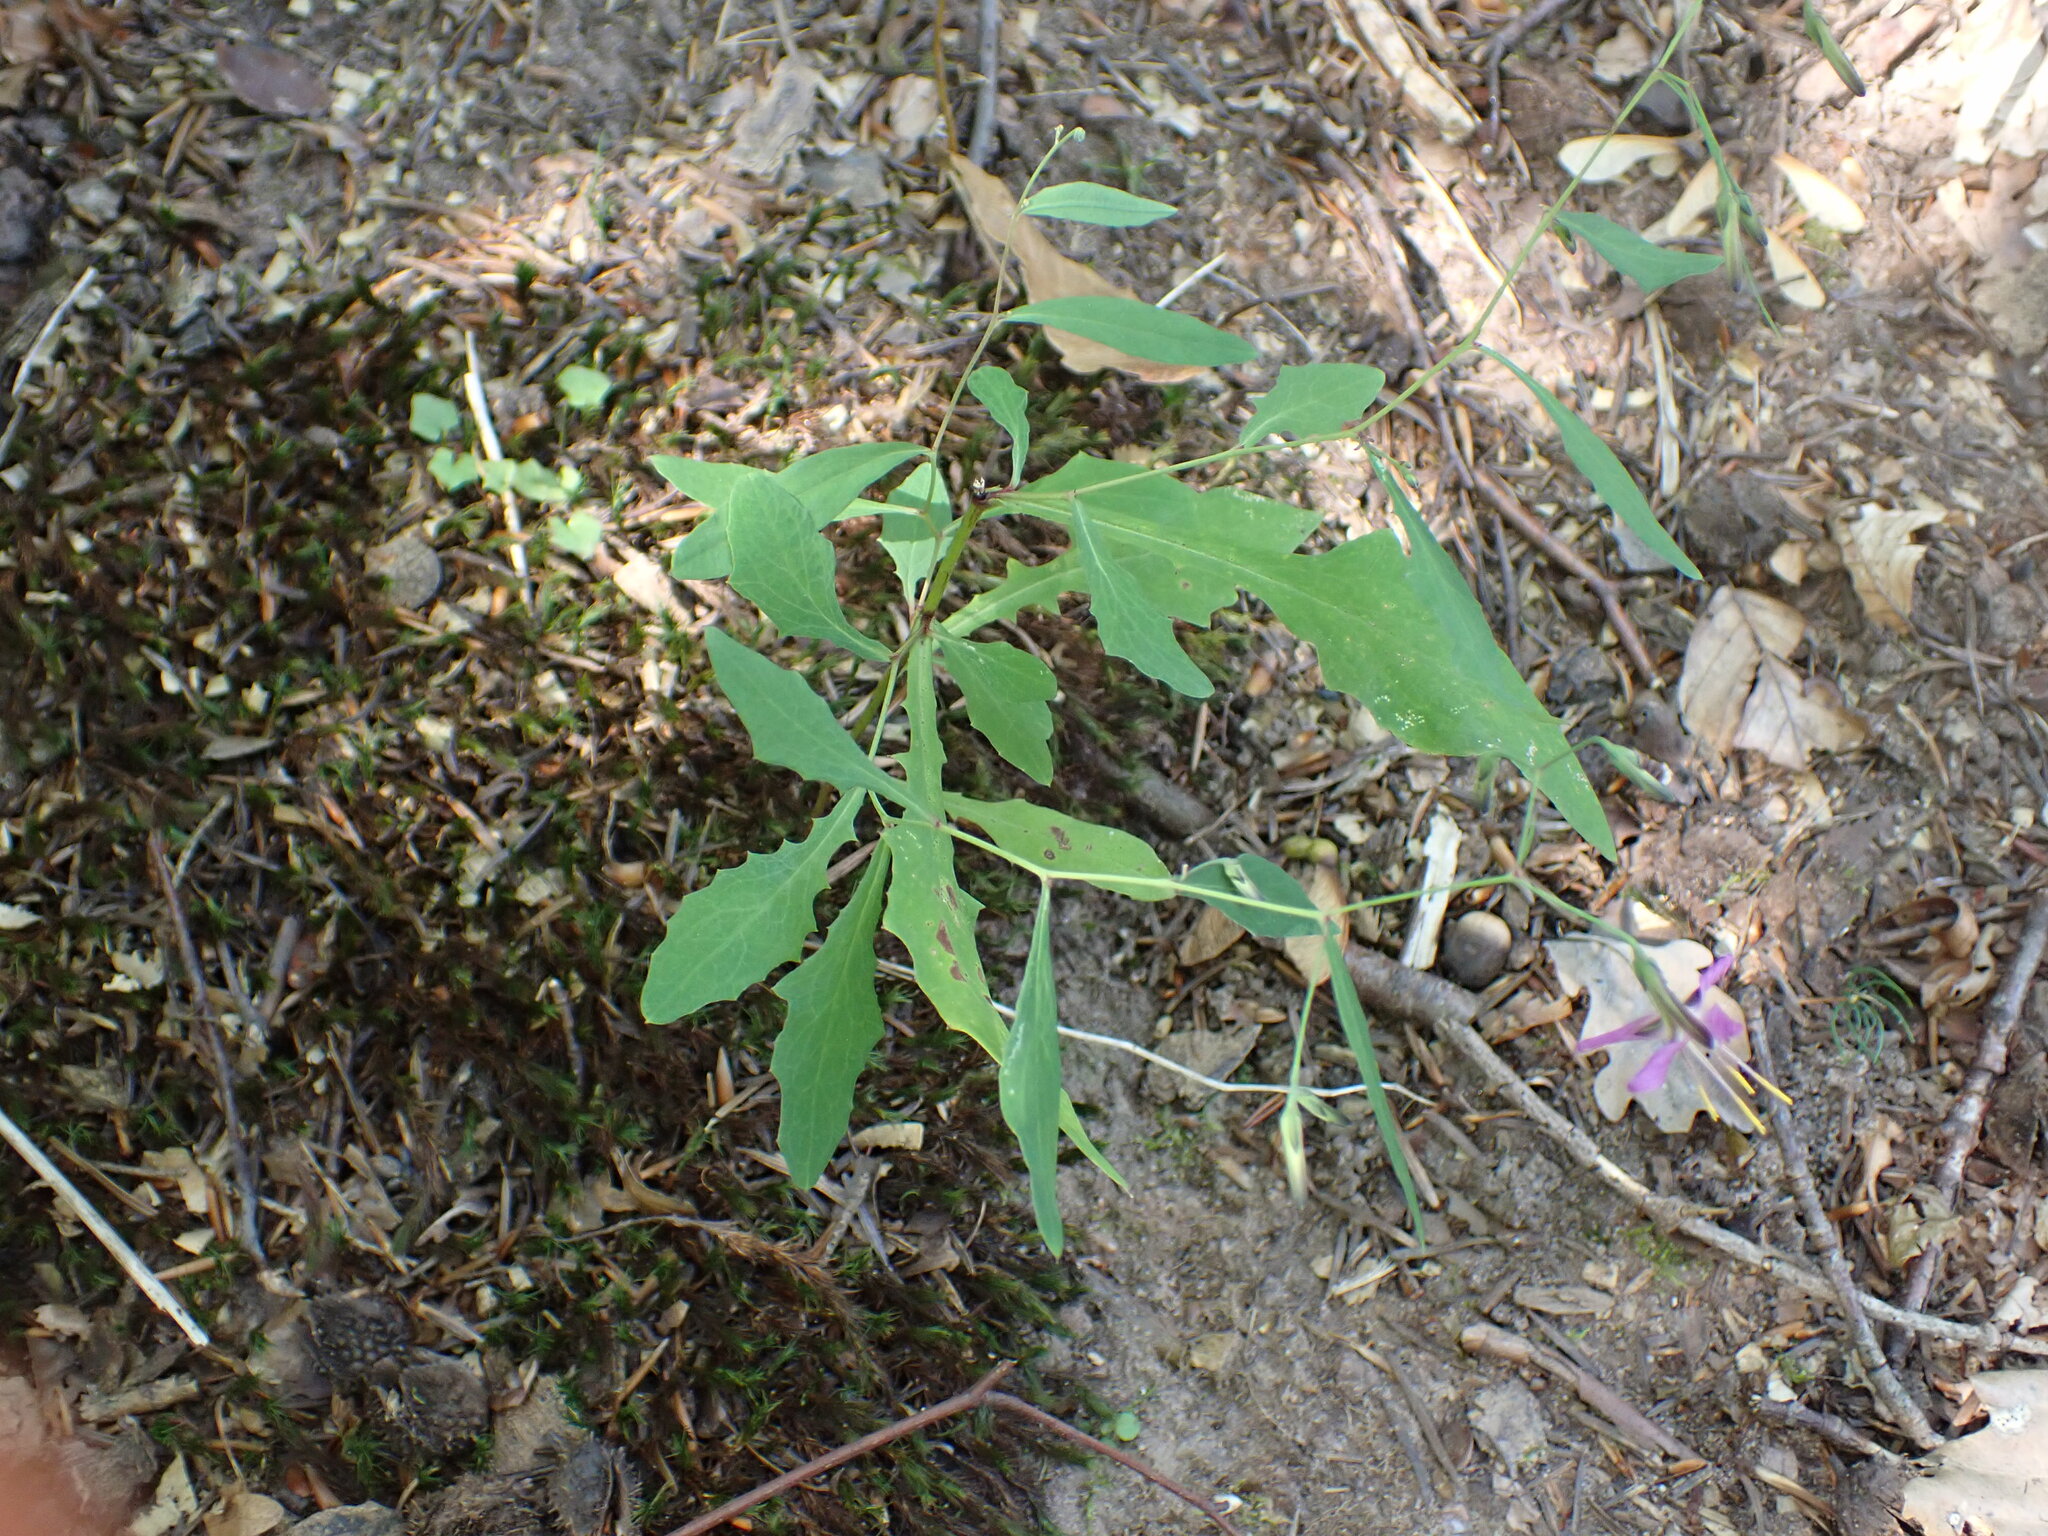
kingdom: Plantae
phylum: Tracheophyta
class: Magnoliopsida
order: Asterales
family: Asteraceae
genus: Prenanthes
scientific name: Prenanthes purpurea
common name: Purple lettuce
